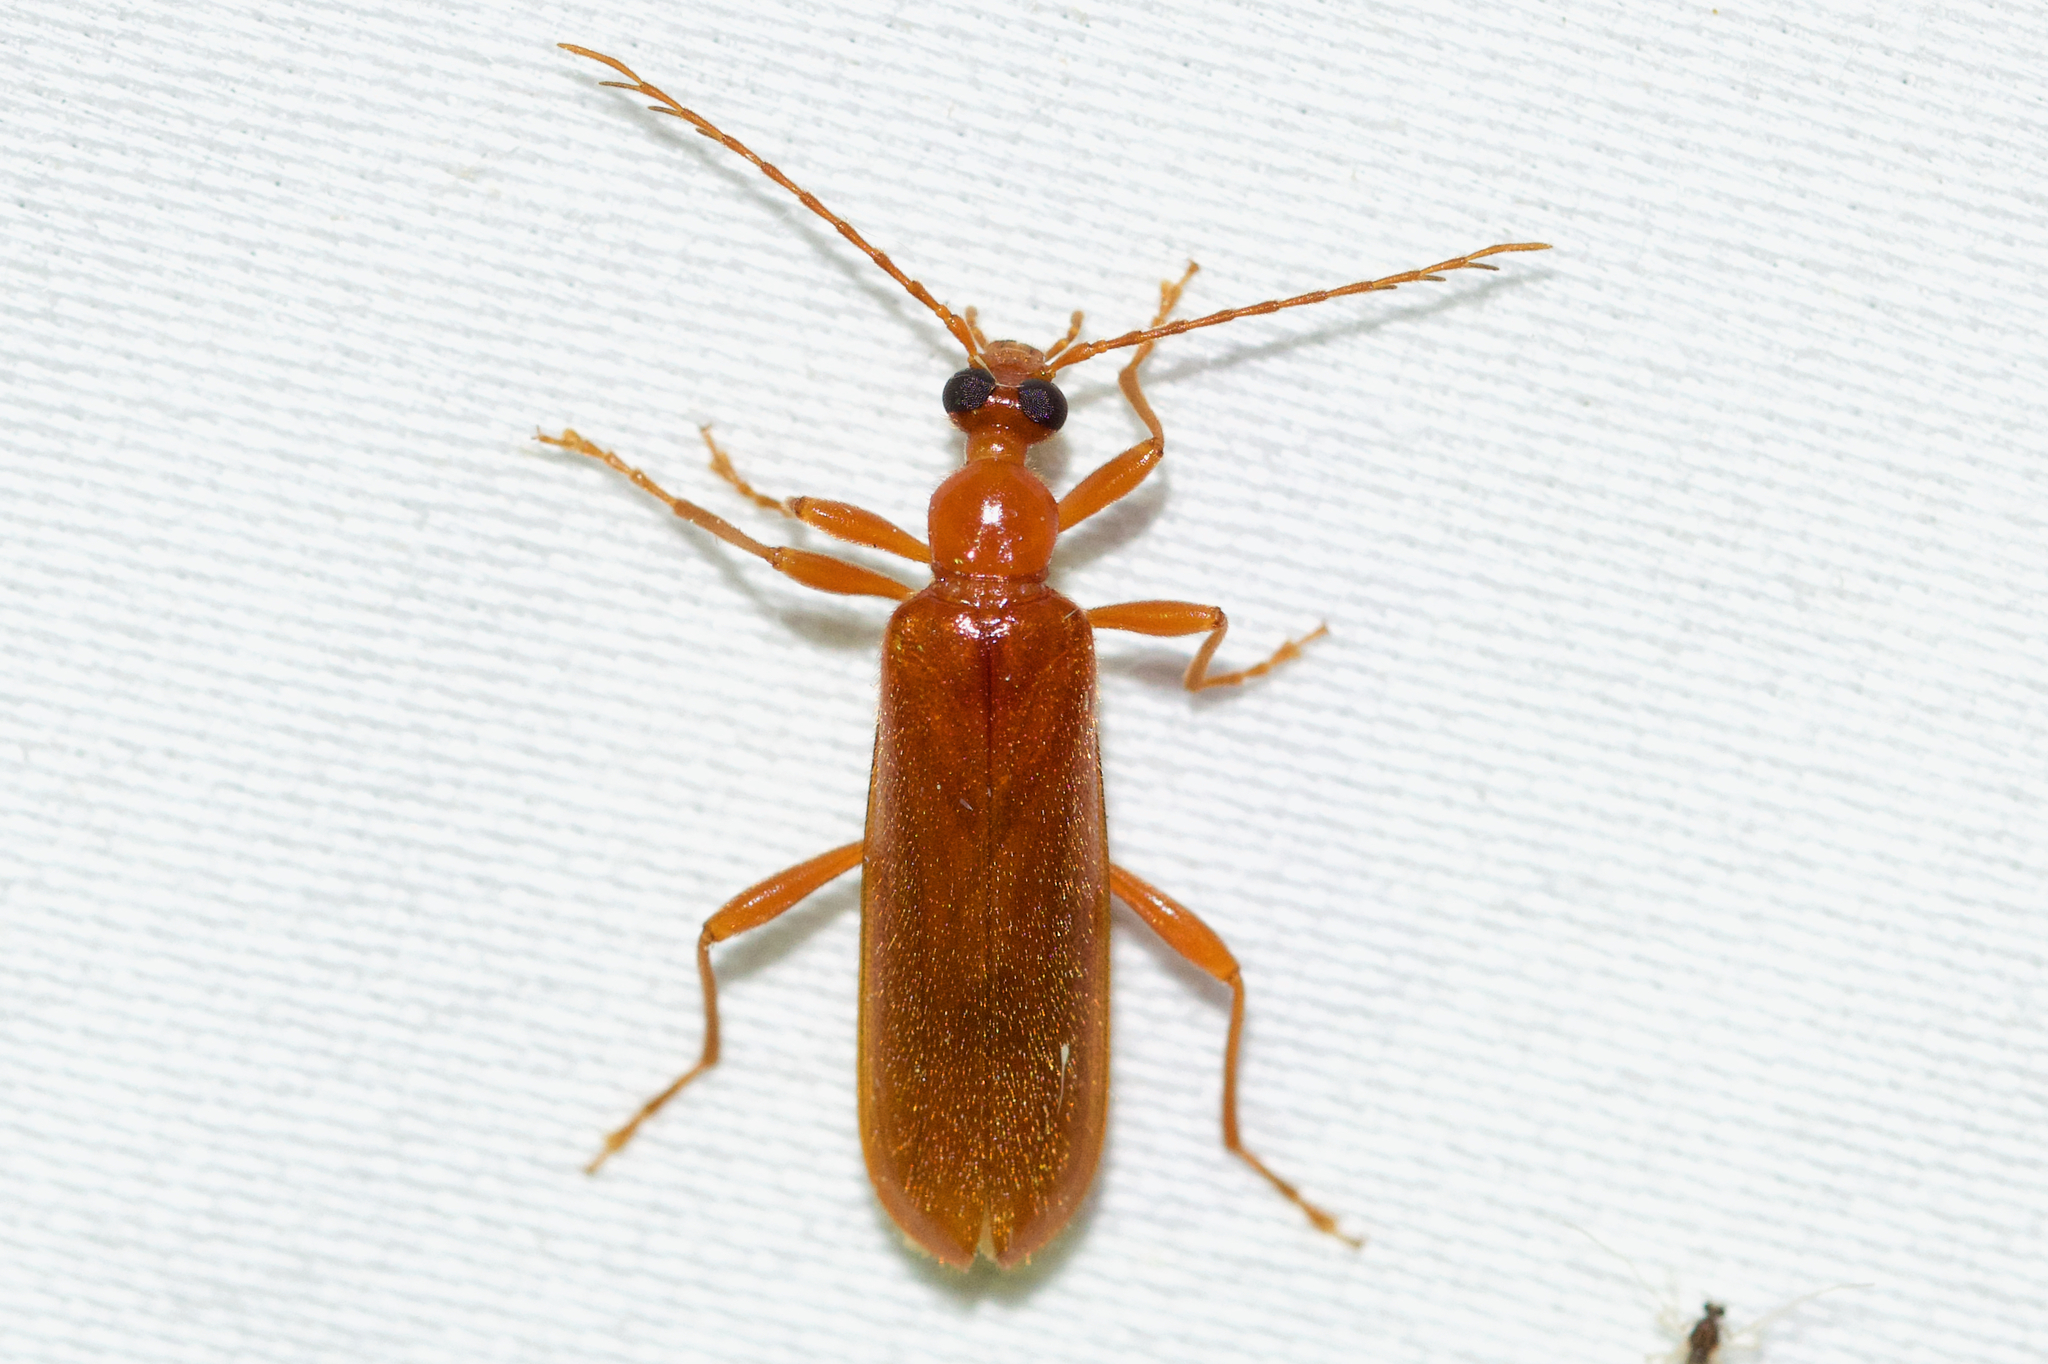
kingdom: Animalia
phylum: Arthropoda
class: Insecta
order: Coleoptera
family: Pyrochroidae
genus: Dendroides
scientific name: Dendroides concolor
